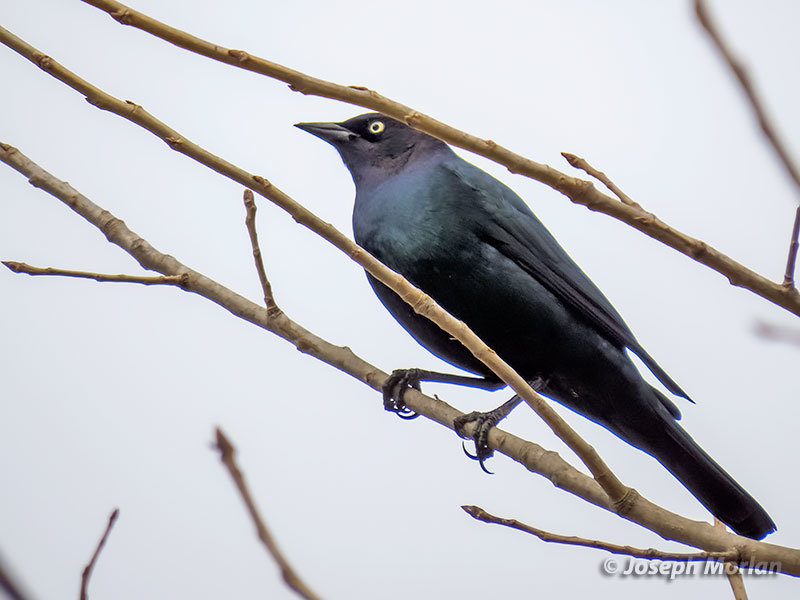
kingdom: Animalia
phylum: Chordata
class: Aves
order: Passeriformes
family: Icteridae
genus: Euphagus
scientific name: Euphagus cyanocephalus
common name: Brewer's blackbird
